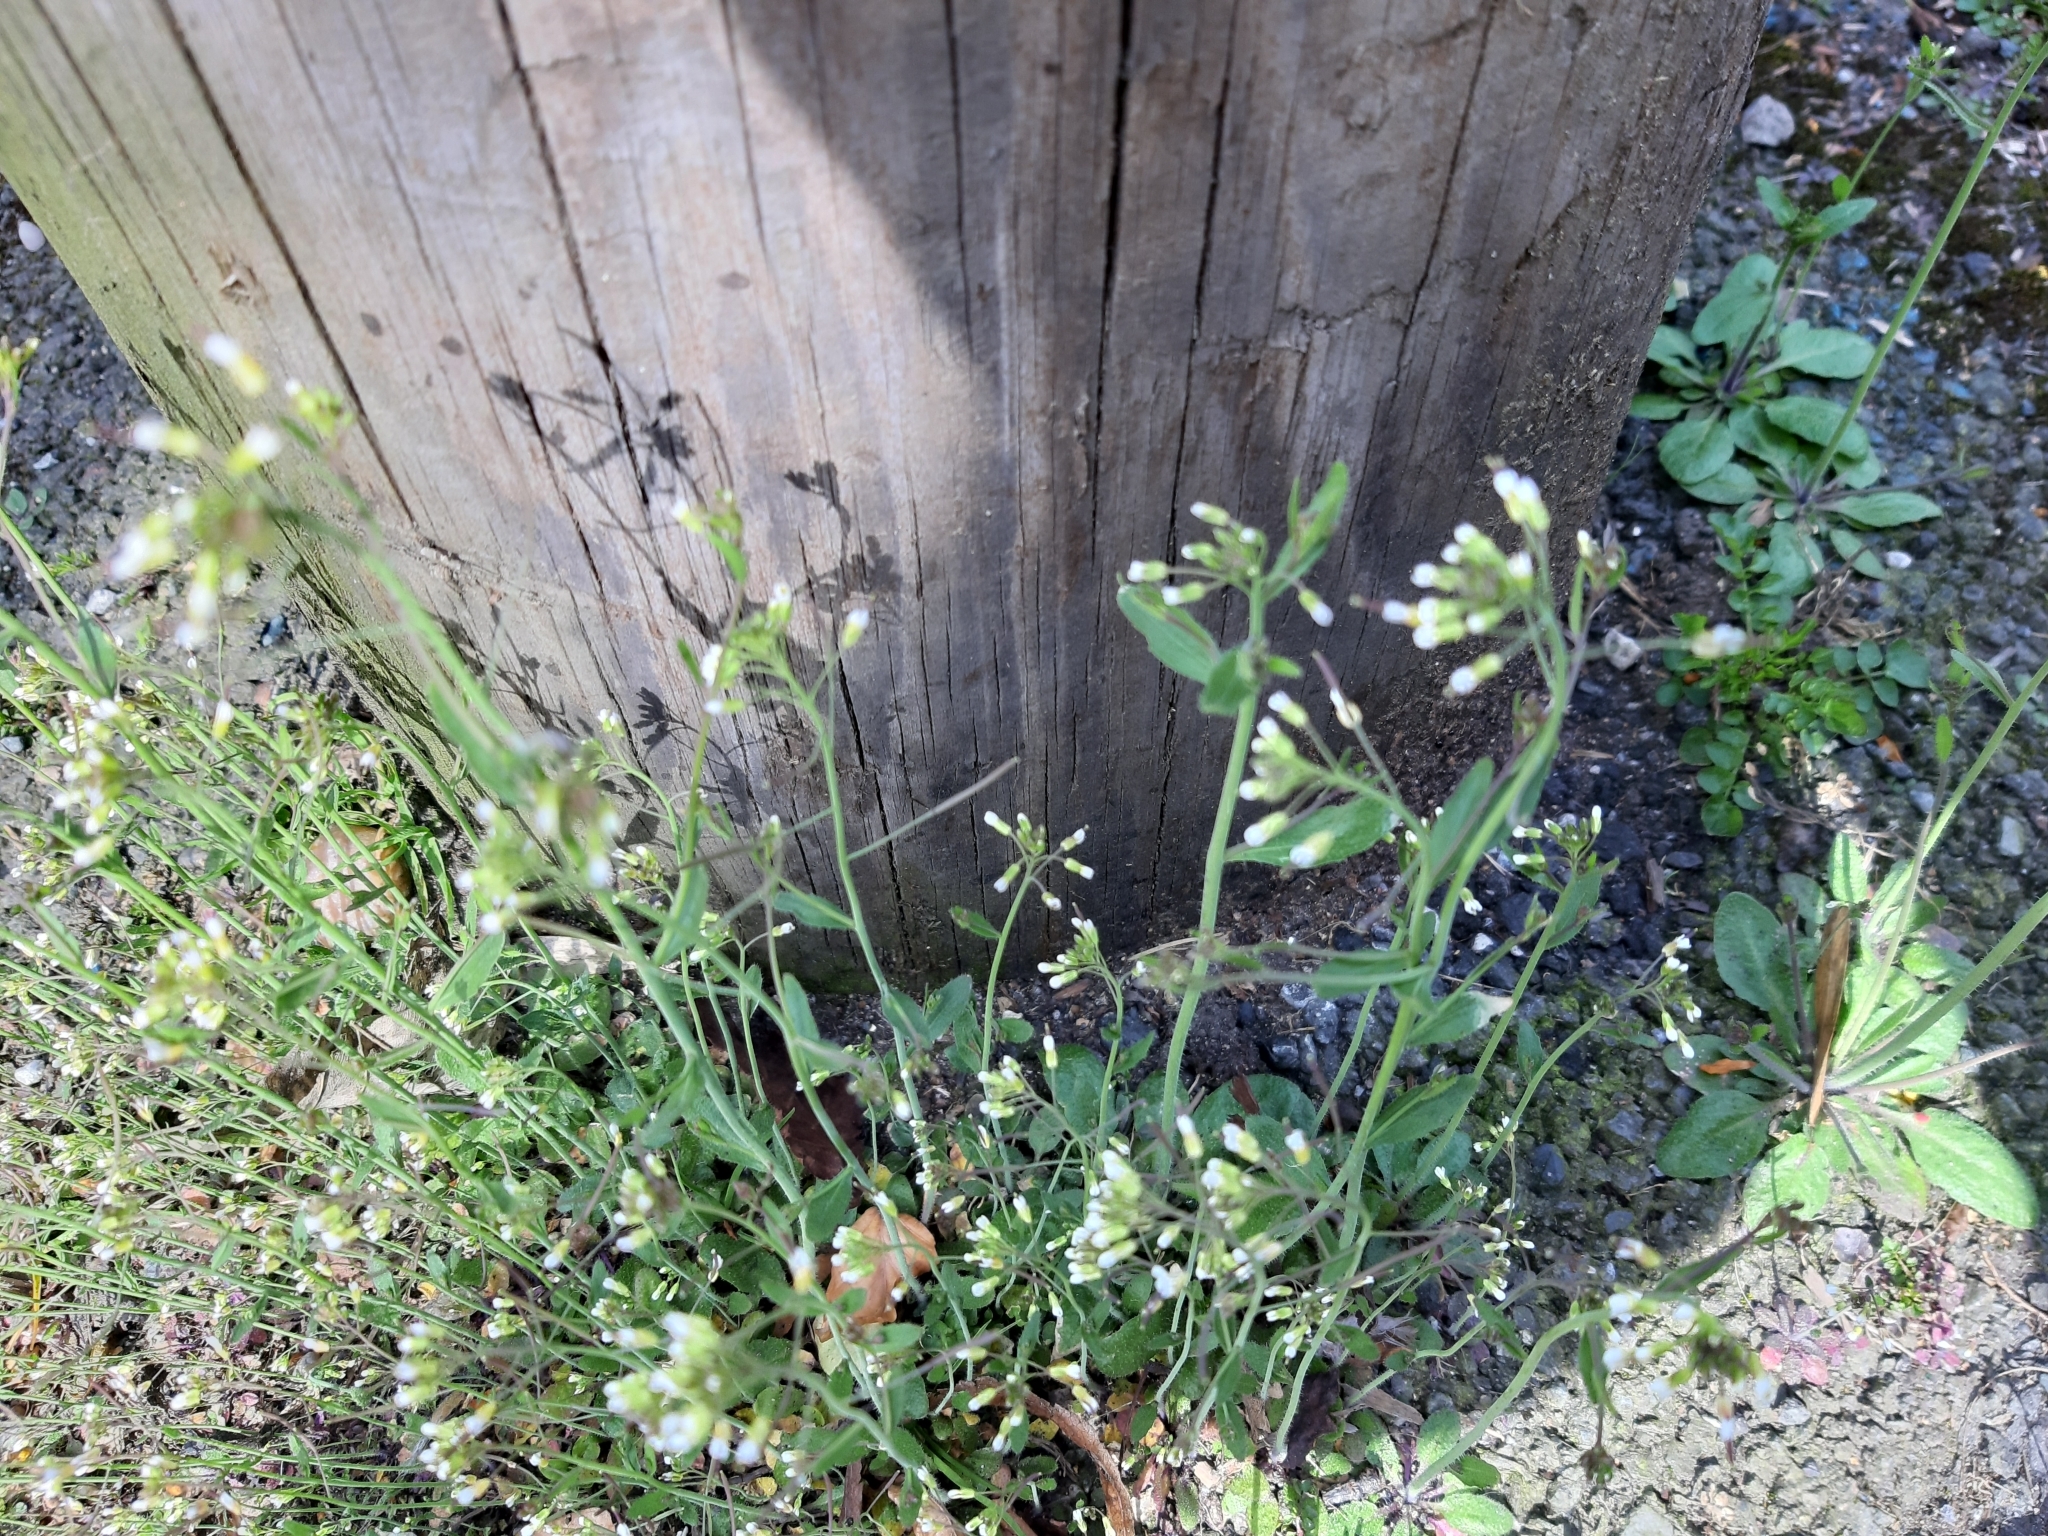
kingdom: Plantae
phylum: Tracheophyta
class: Magnoliopsida
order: Brassicales
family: Brassicaceae
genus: Arabidopsis
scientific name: Arabidopsis thaliana
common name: Thale cress
